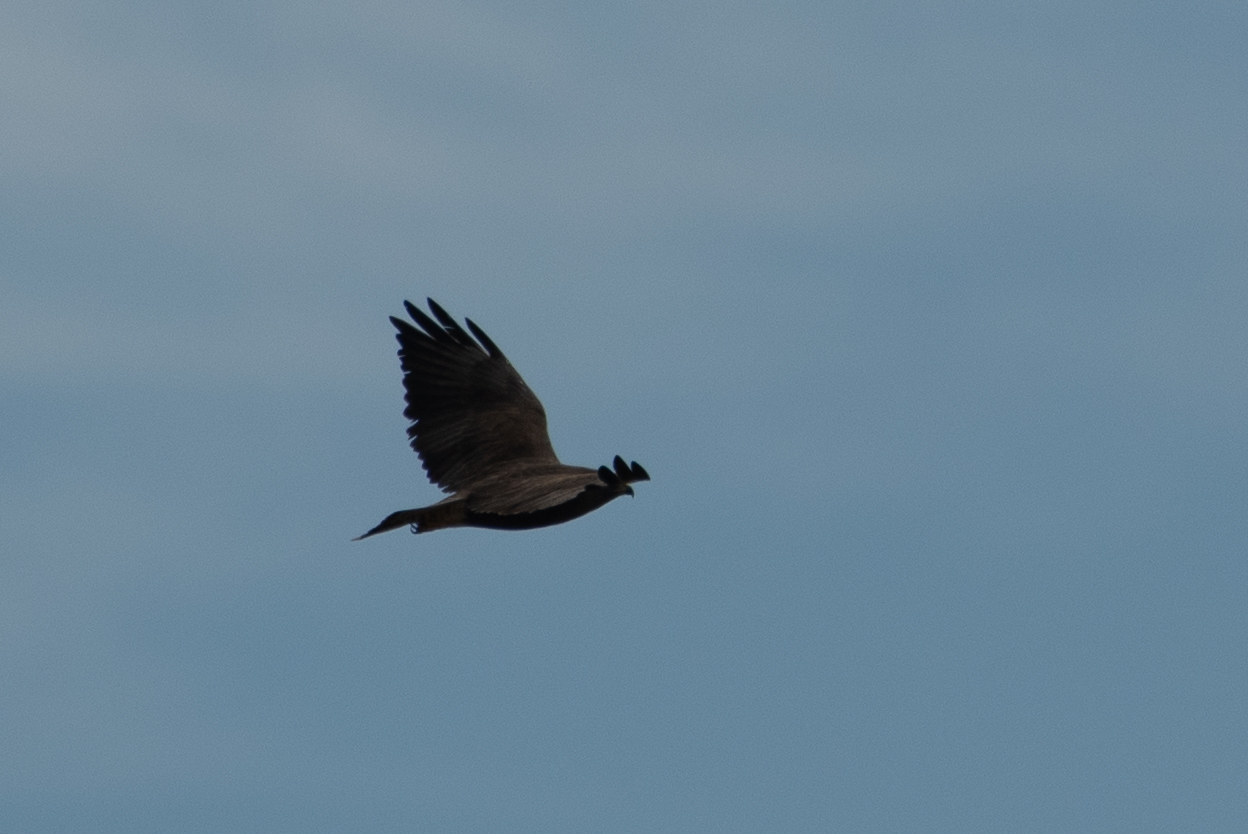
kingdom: Animalia
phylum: Chordata
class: Aves
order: Accipitriformes
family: Accipitridae
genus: Buteo
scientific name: Buteo swainsoni
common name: Swainson's hawk
